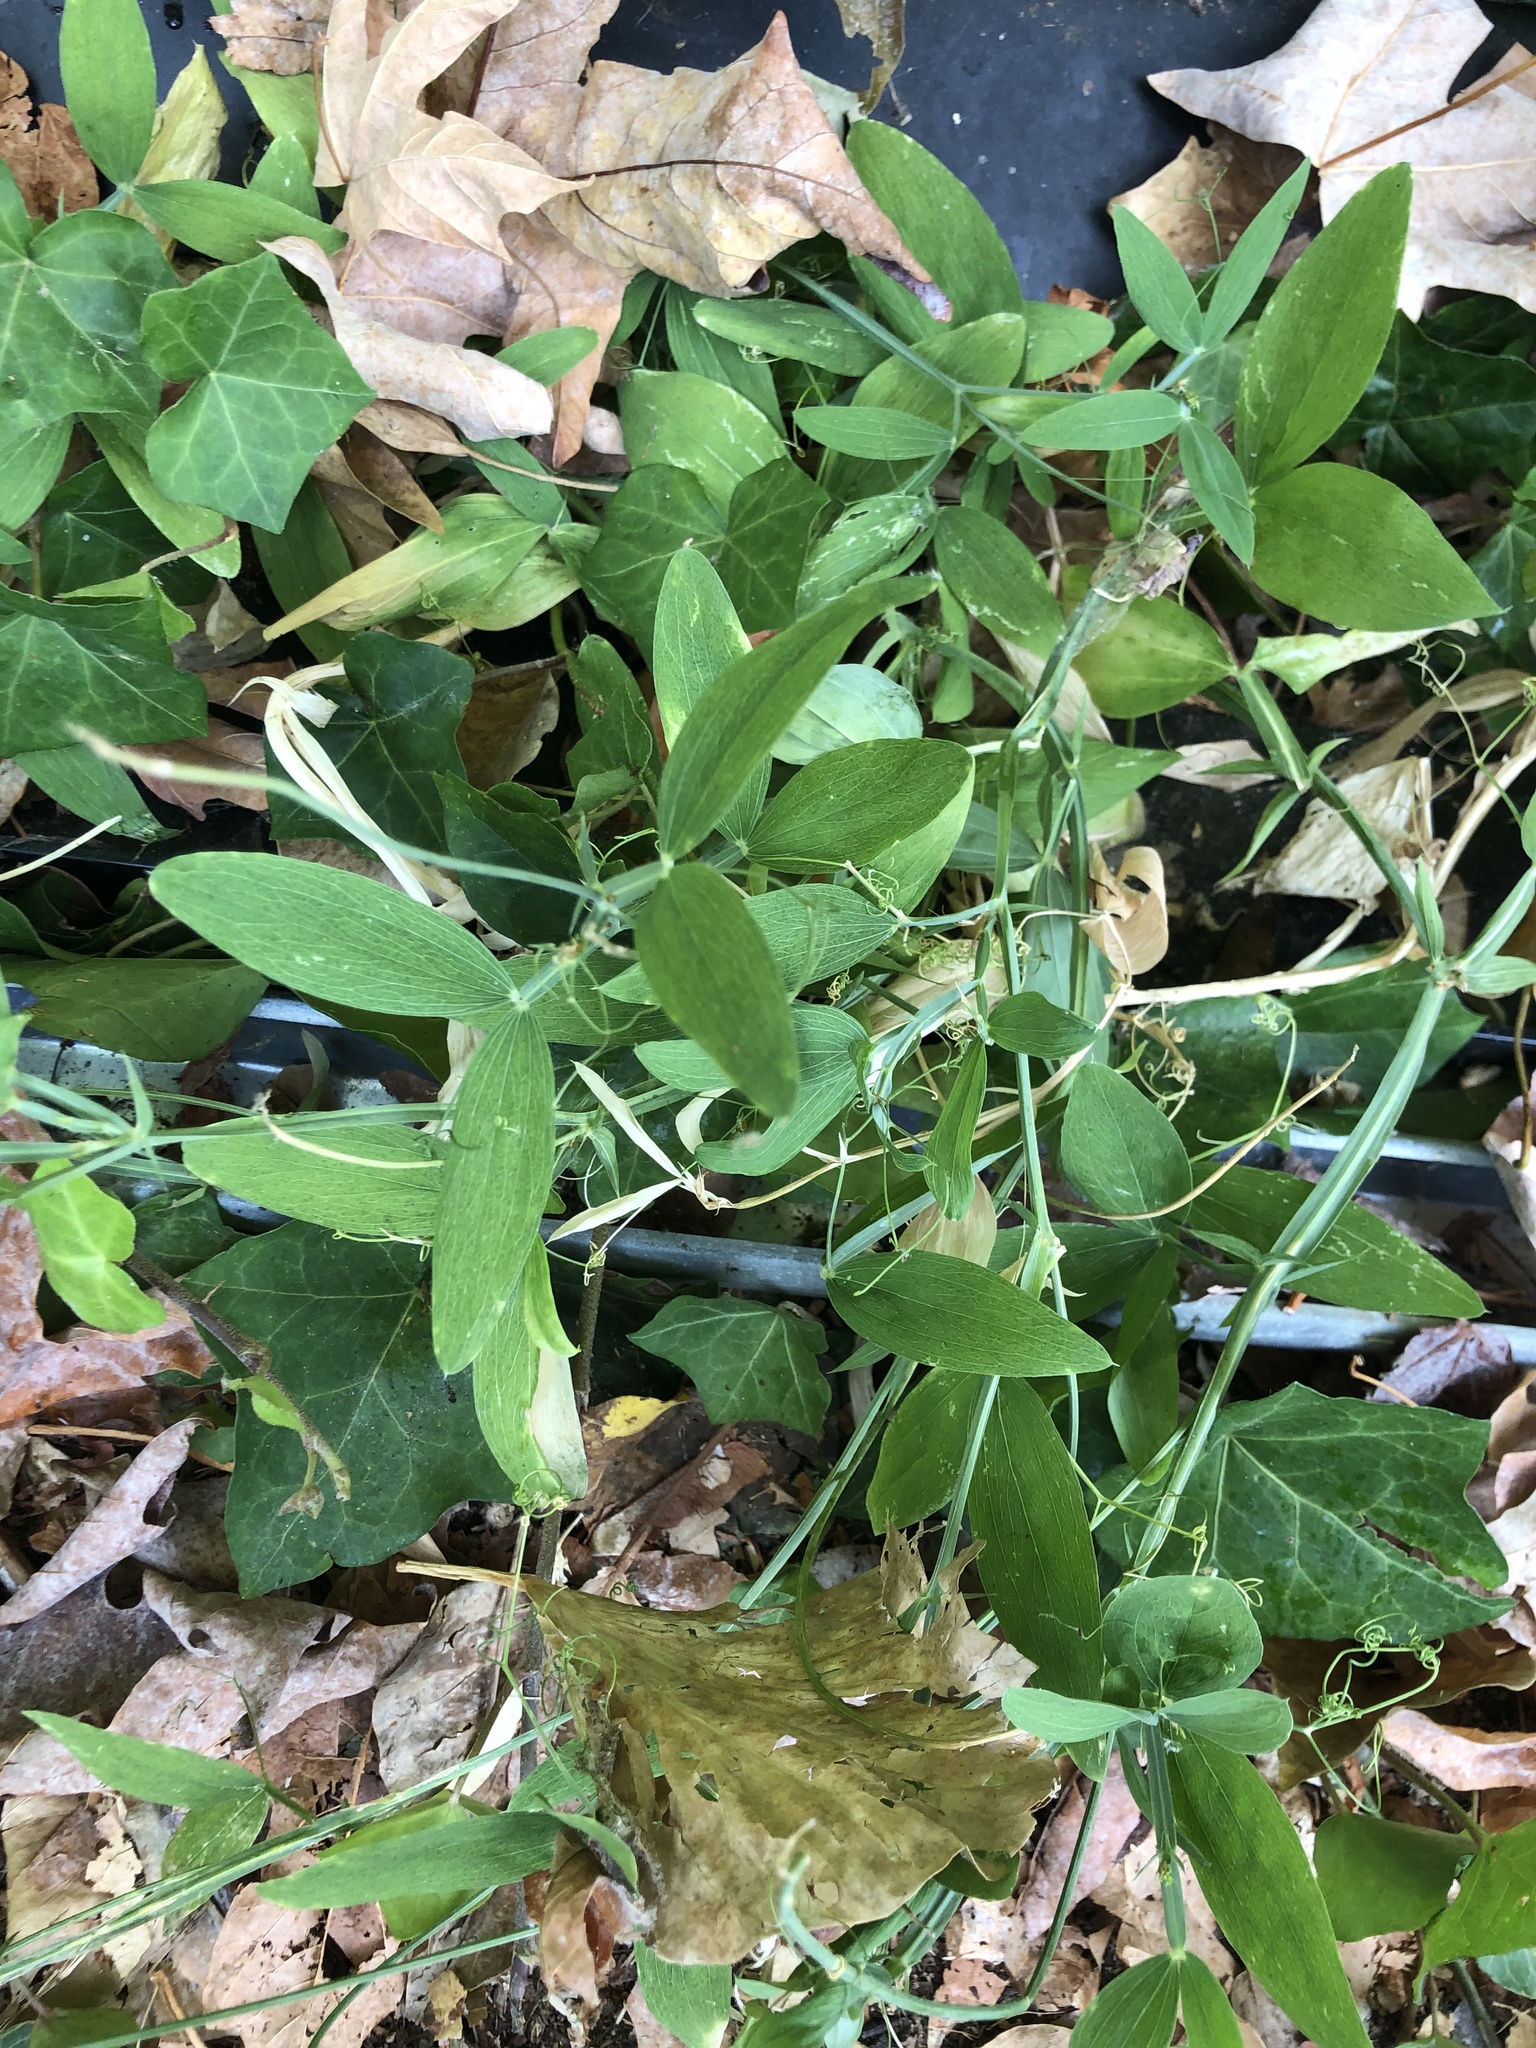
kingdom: Plantae
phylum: Tracheophyta
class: Magnoliopsida
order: Fabales
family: Fabaceae
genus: Lathyrus
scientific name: Lathyrus latifolius
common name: Perennial pea
